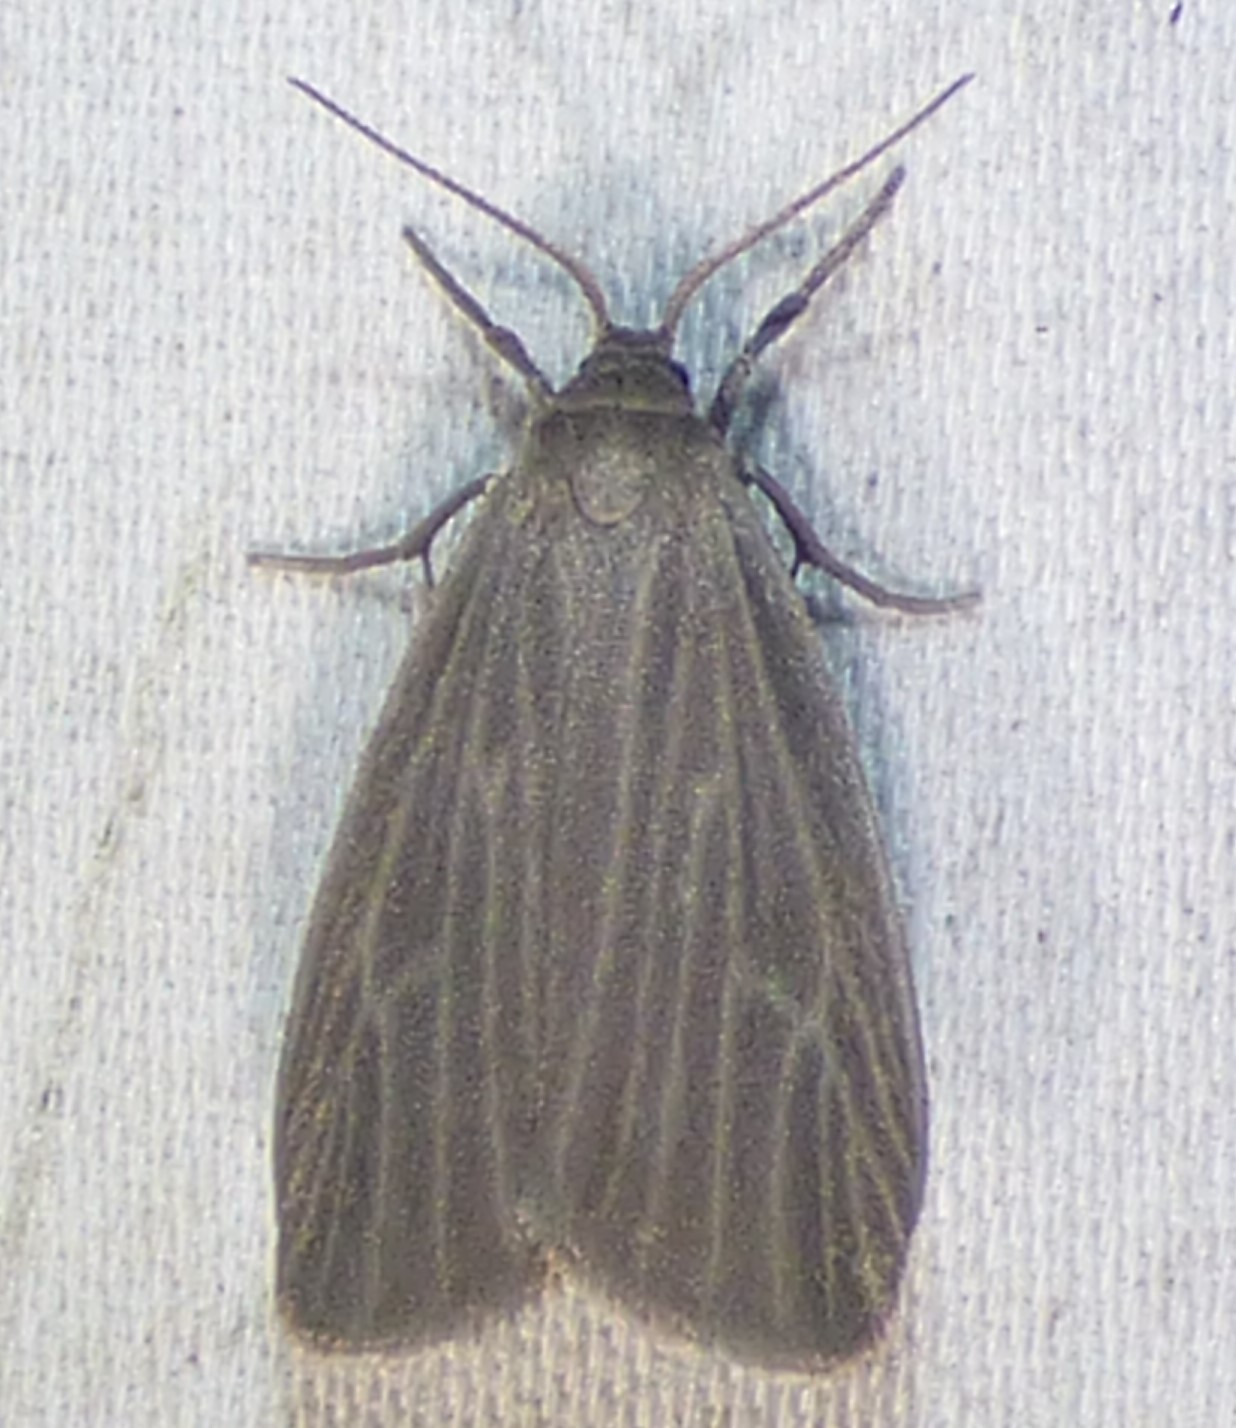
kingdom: Animalia
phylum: Arthropoda
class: Insecta
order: Lepidoptera
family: Erebidae
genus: Crambidia
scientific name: Crambidia pallida
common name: Pale lichen moth
